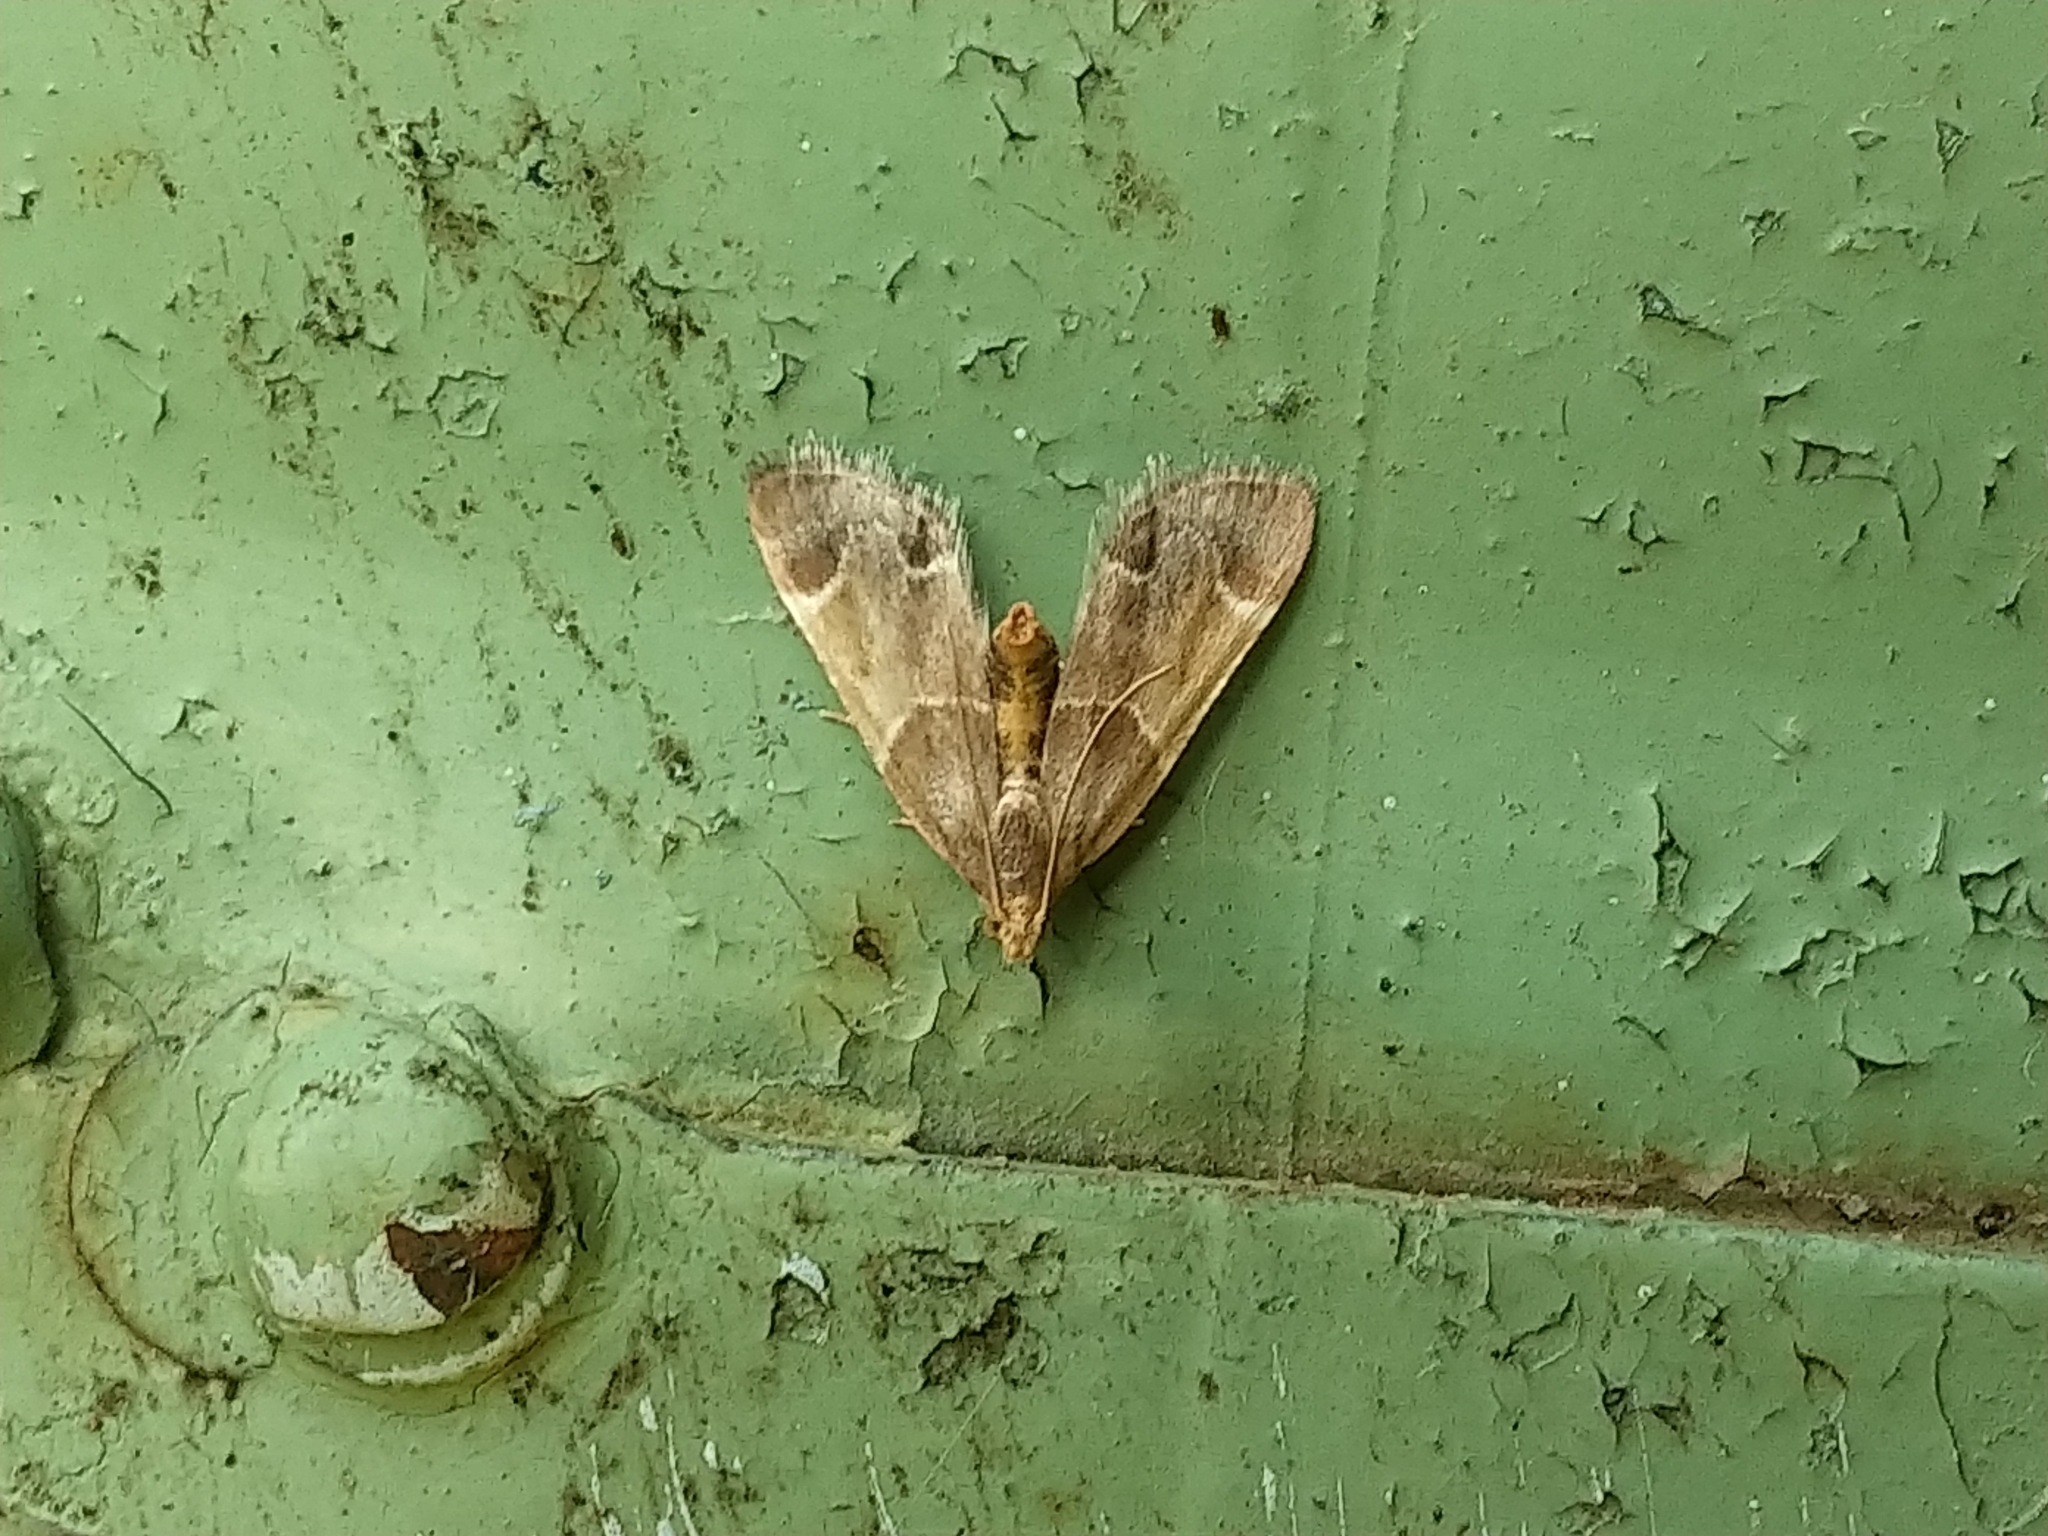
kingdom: Animalia
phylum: Arthropoda
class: Insecta
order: Lepidoptera
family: Pyralidae
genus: Pyralis
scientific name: Pyralis farinalis
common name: Meal moth
